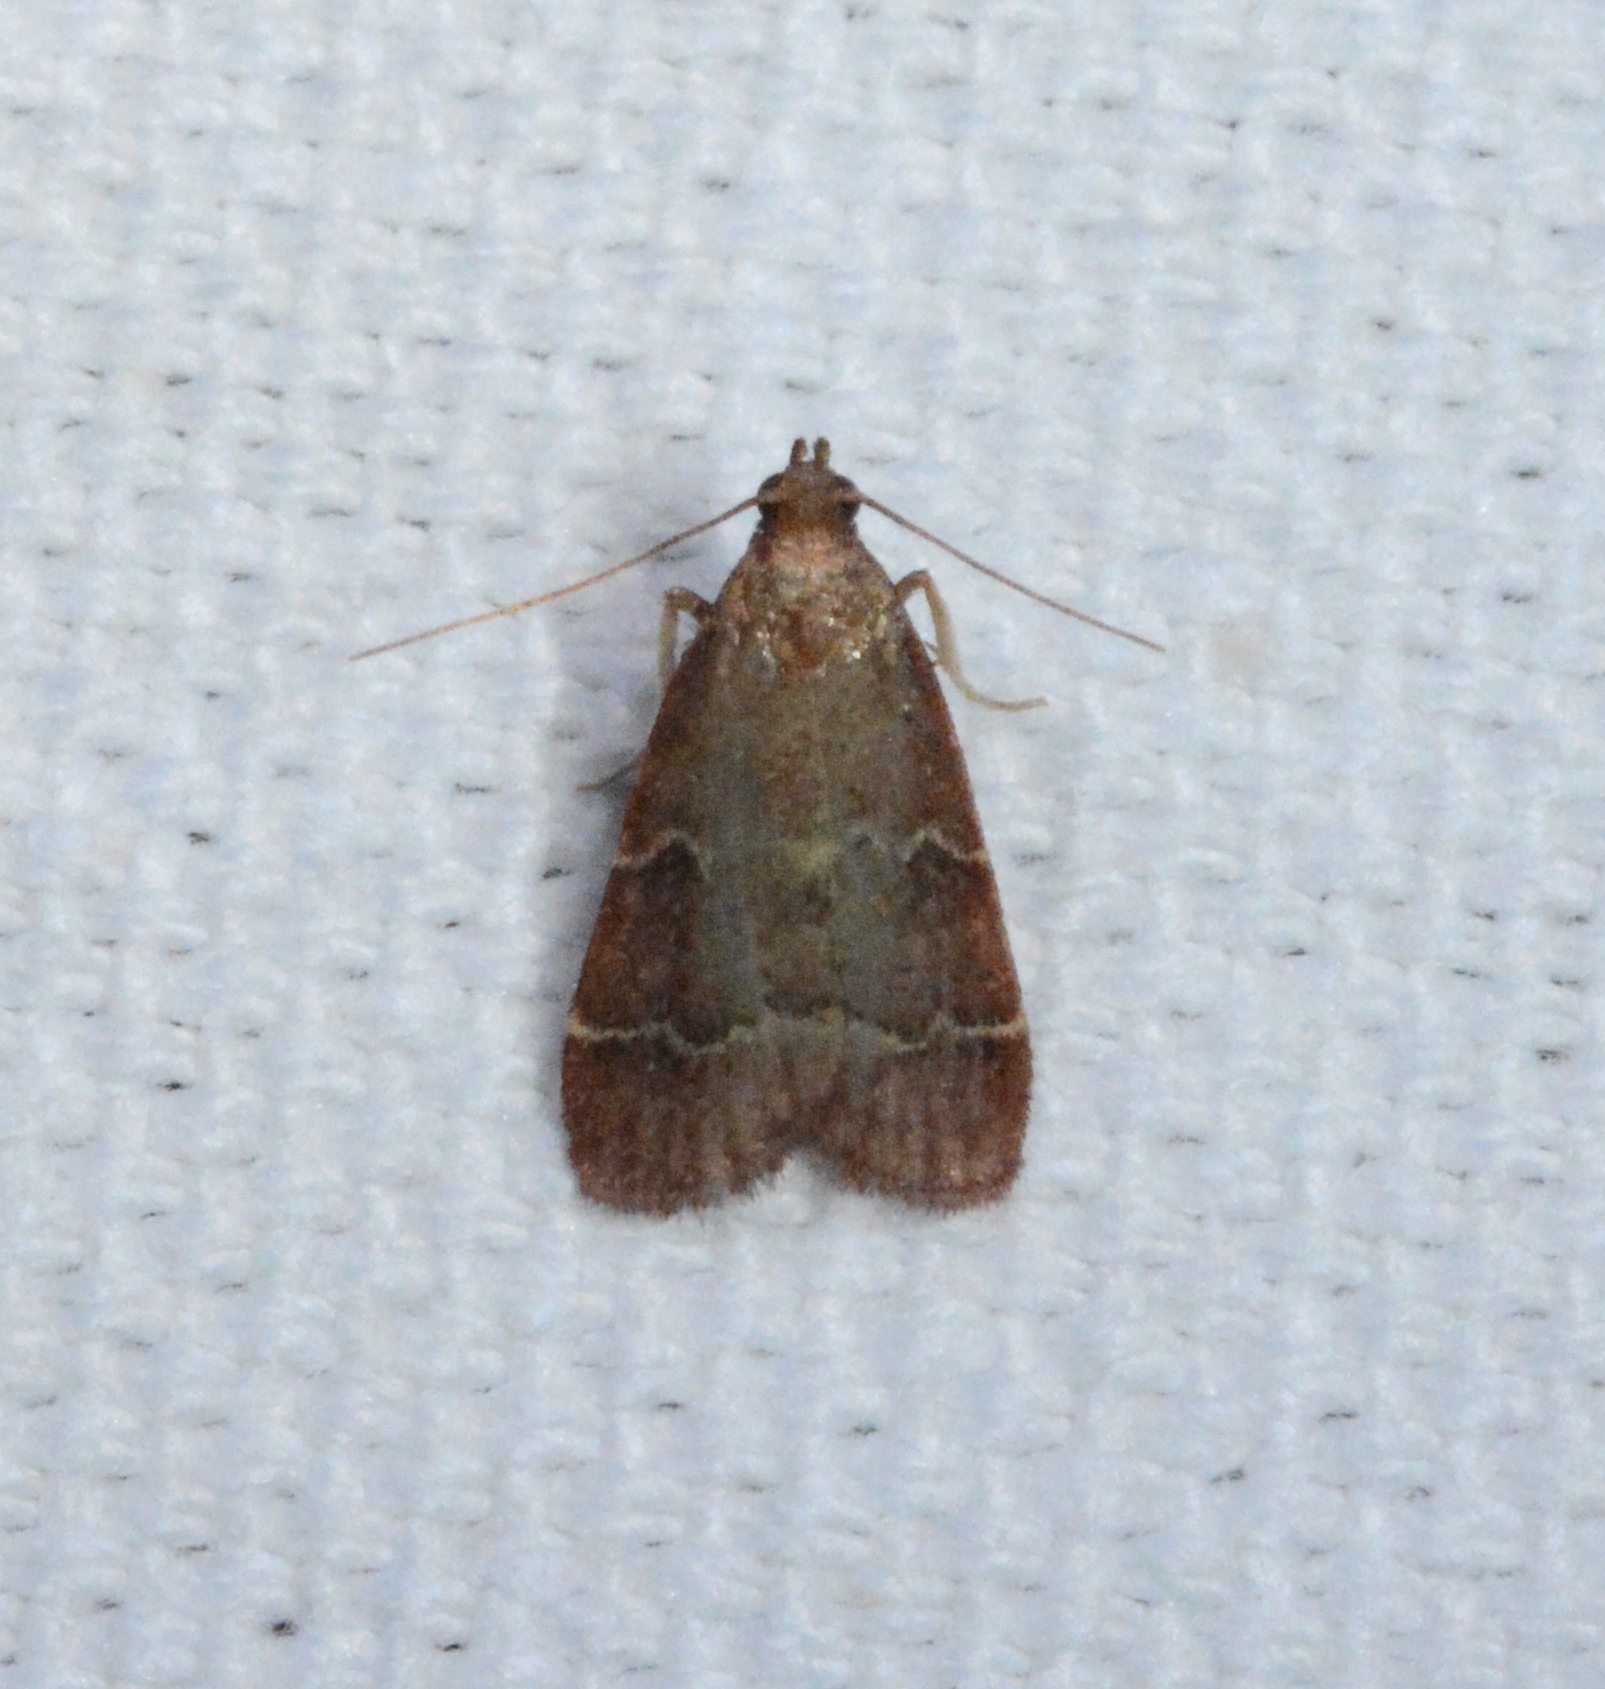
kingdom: Animalia
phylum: Arthropoda
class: Insecta
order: Lepidoptera
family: Pyralidae
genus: Arta
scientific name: Arta
